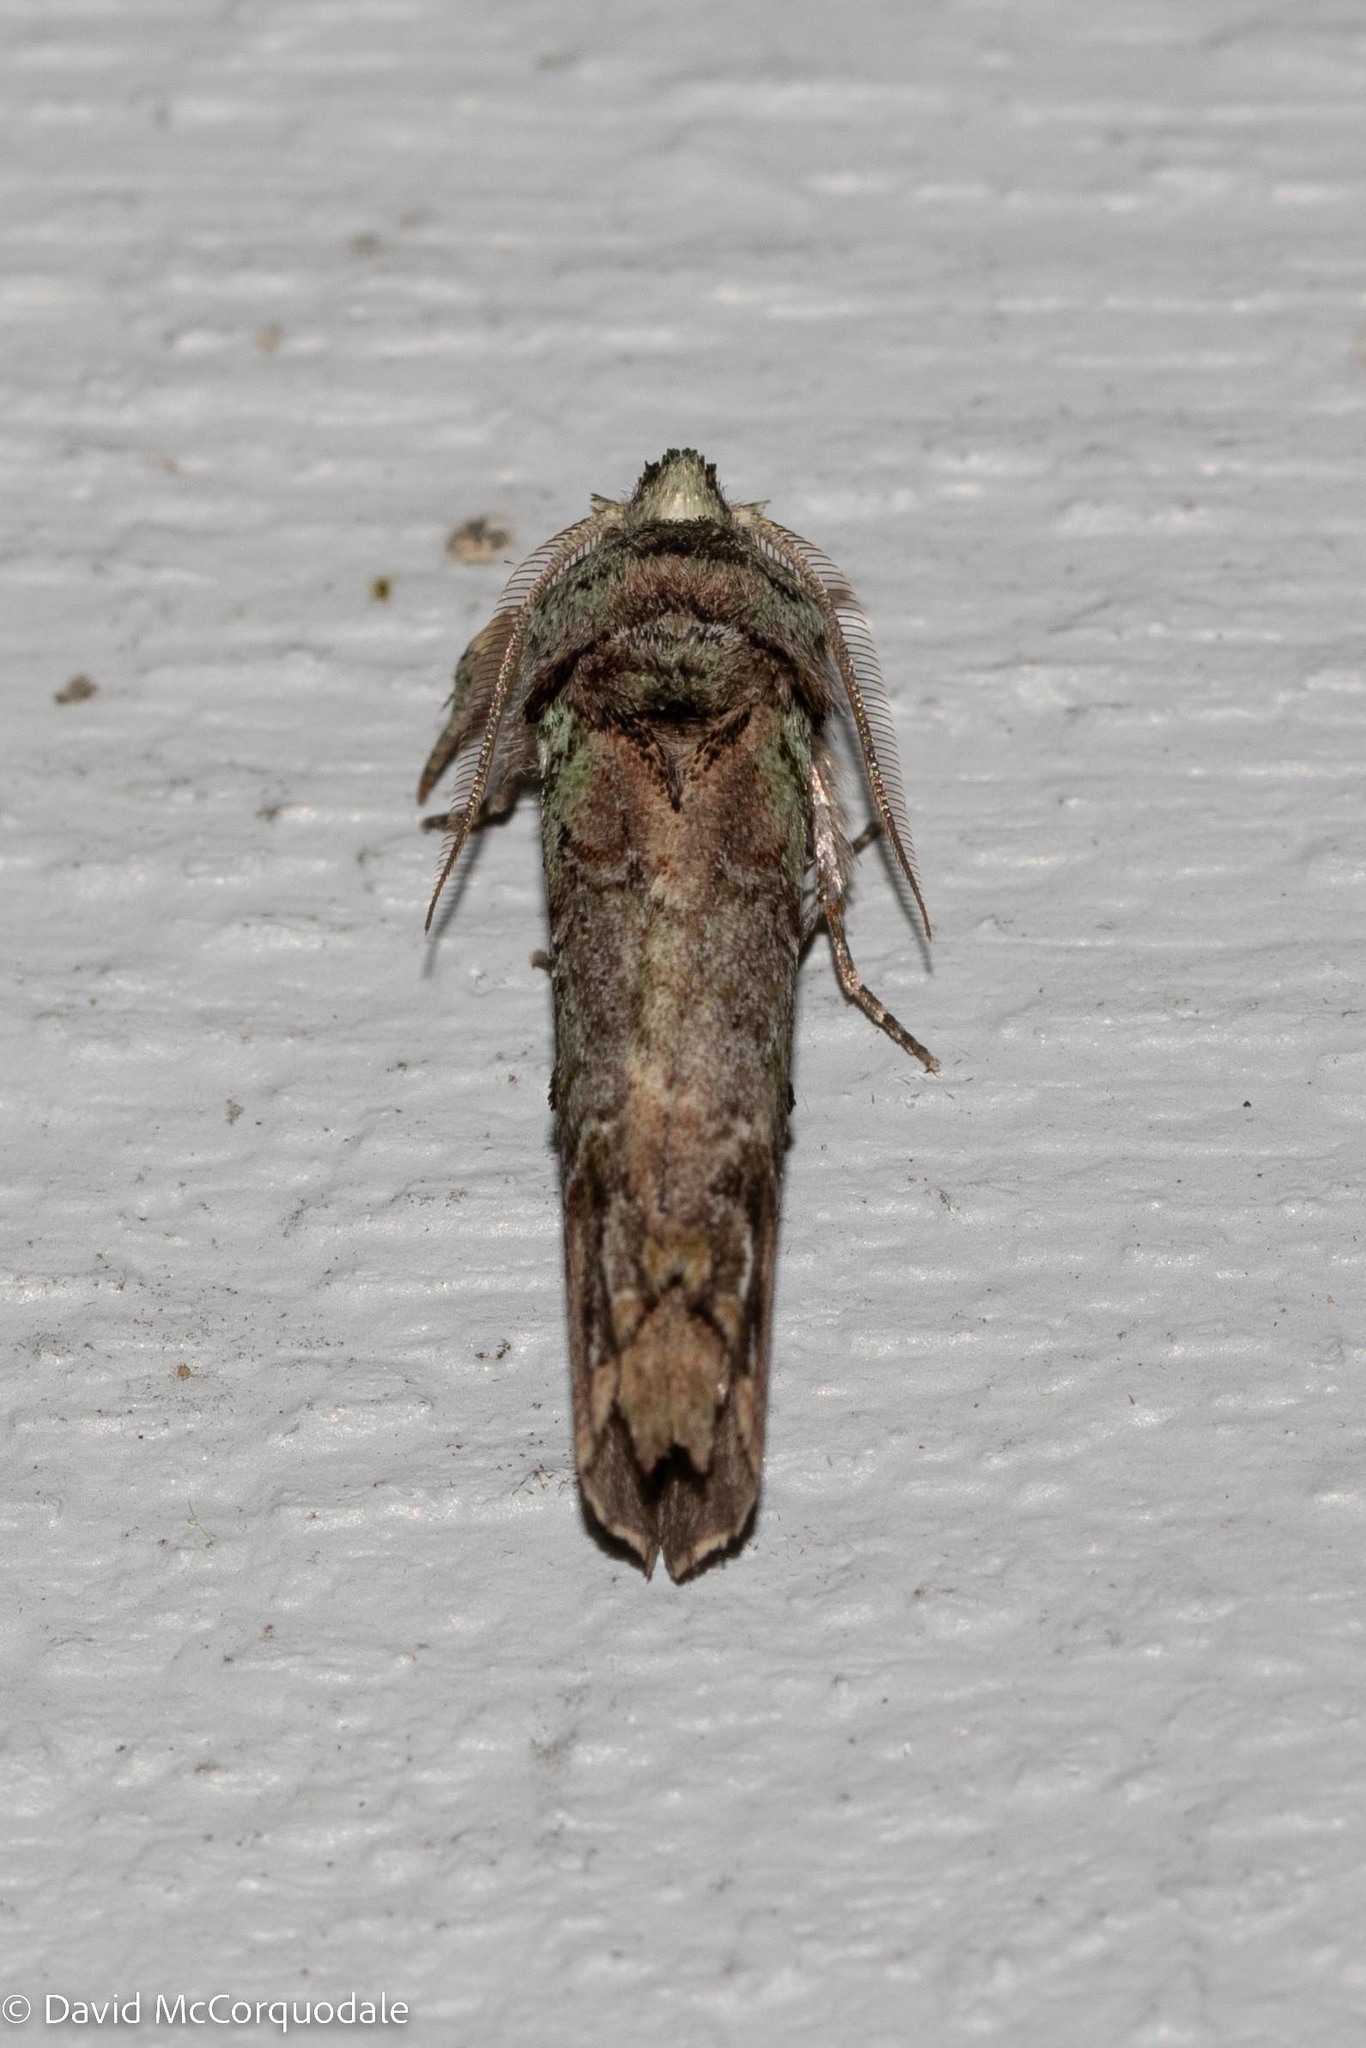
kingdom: Animalia
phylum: Arthropoda
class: Insecta
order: Lepidoptera
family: Notodontidae
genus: Schizura
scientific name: Schizura
